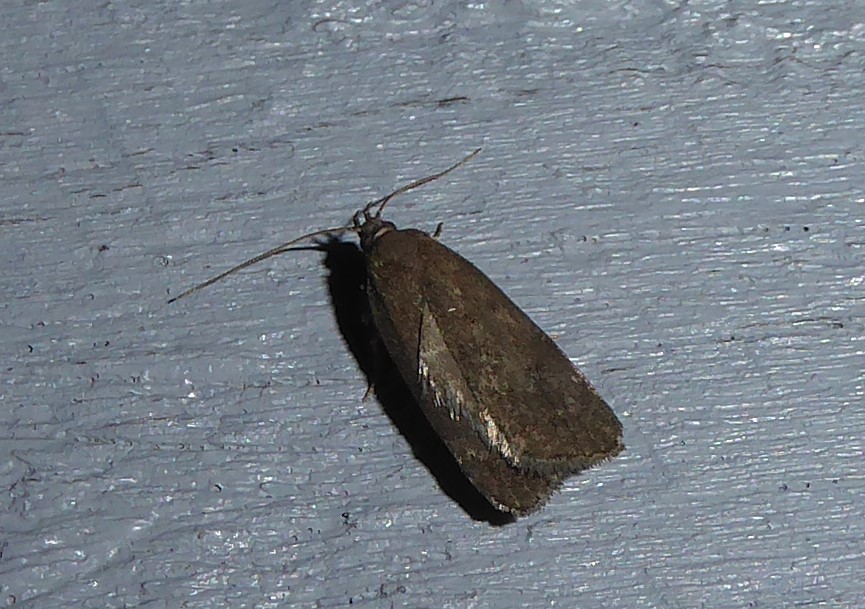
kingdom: Animalia
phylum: Arthropoda
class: Insecta
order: Lepidoptera
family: Depressariidae
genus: Phaeosaces
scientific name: Phaeosaces apocrypta
